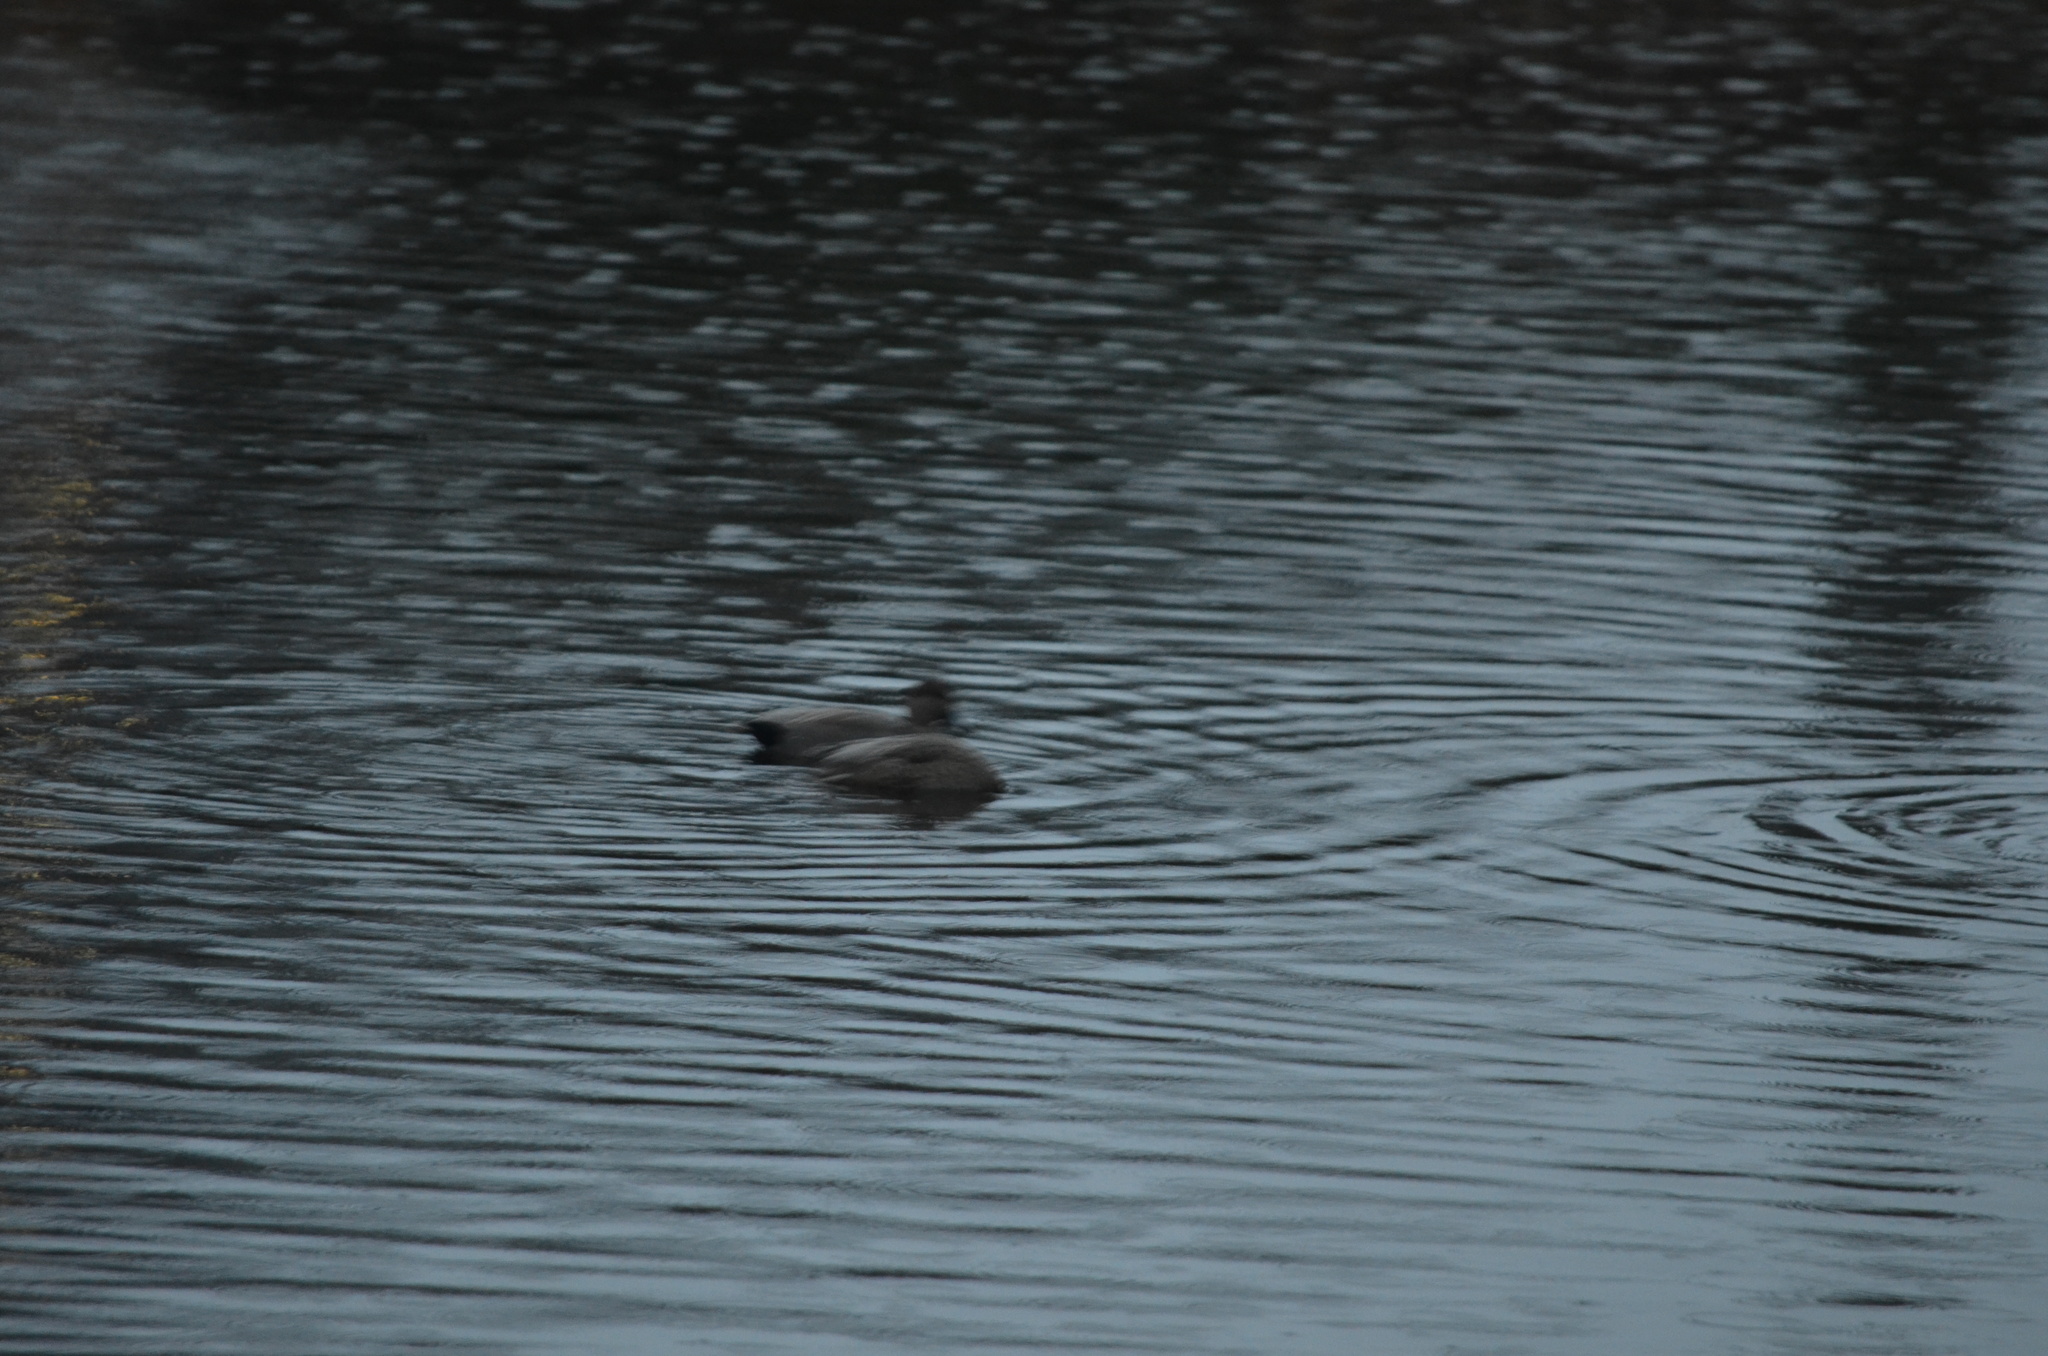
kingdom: Animalia
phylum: Chordata
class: Aves
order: Anseriformes
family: Anatidae
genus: Mareca
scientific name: Mareca strepera
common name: Gadwall
